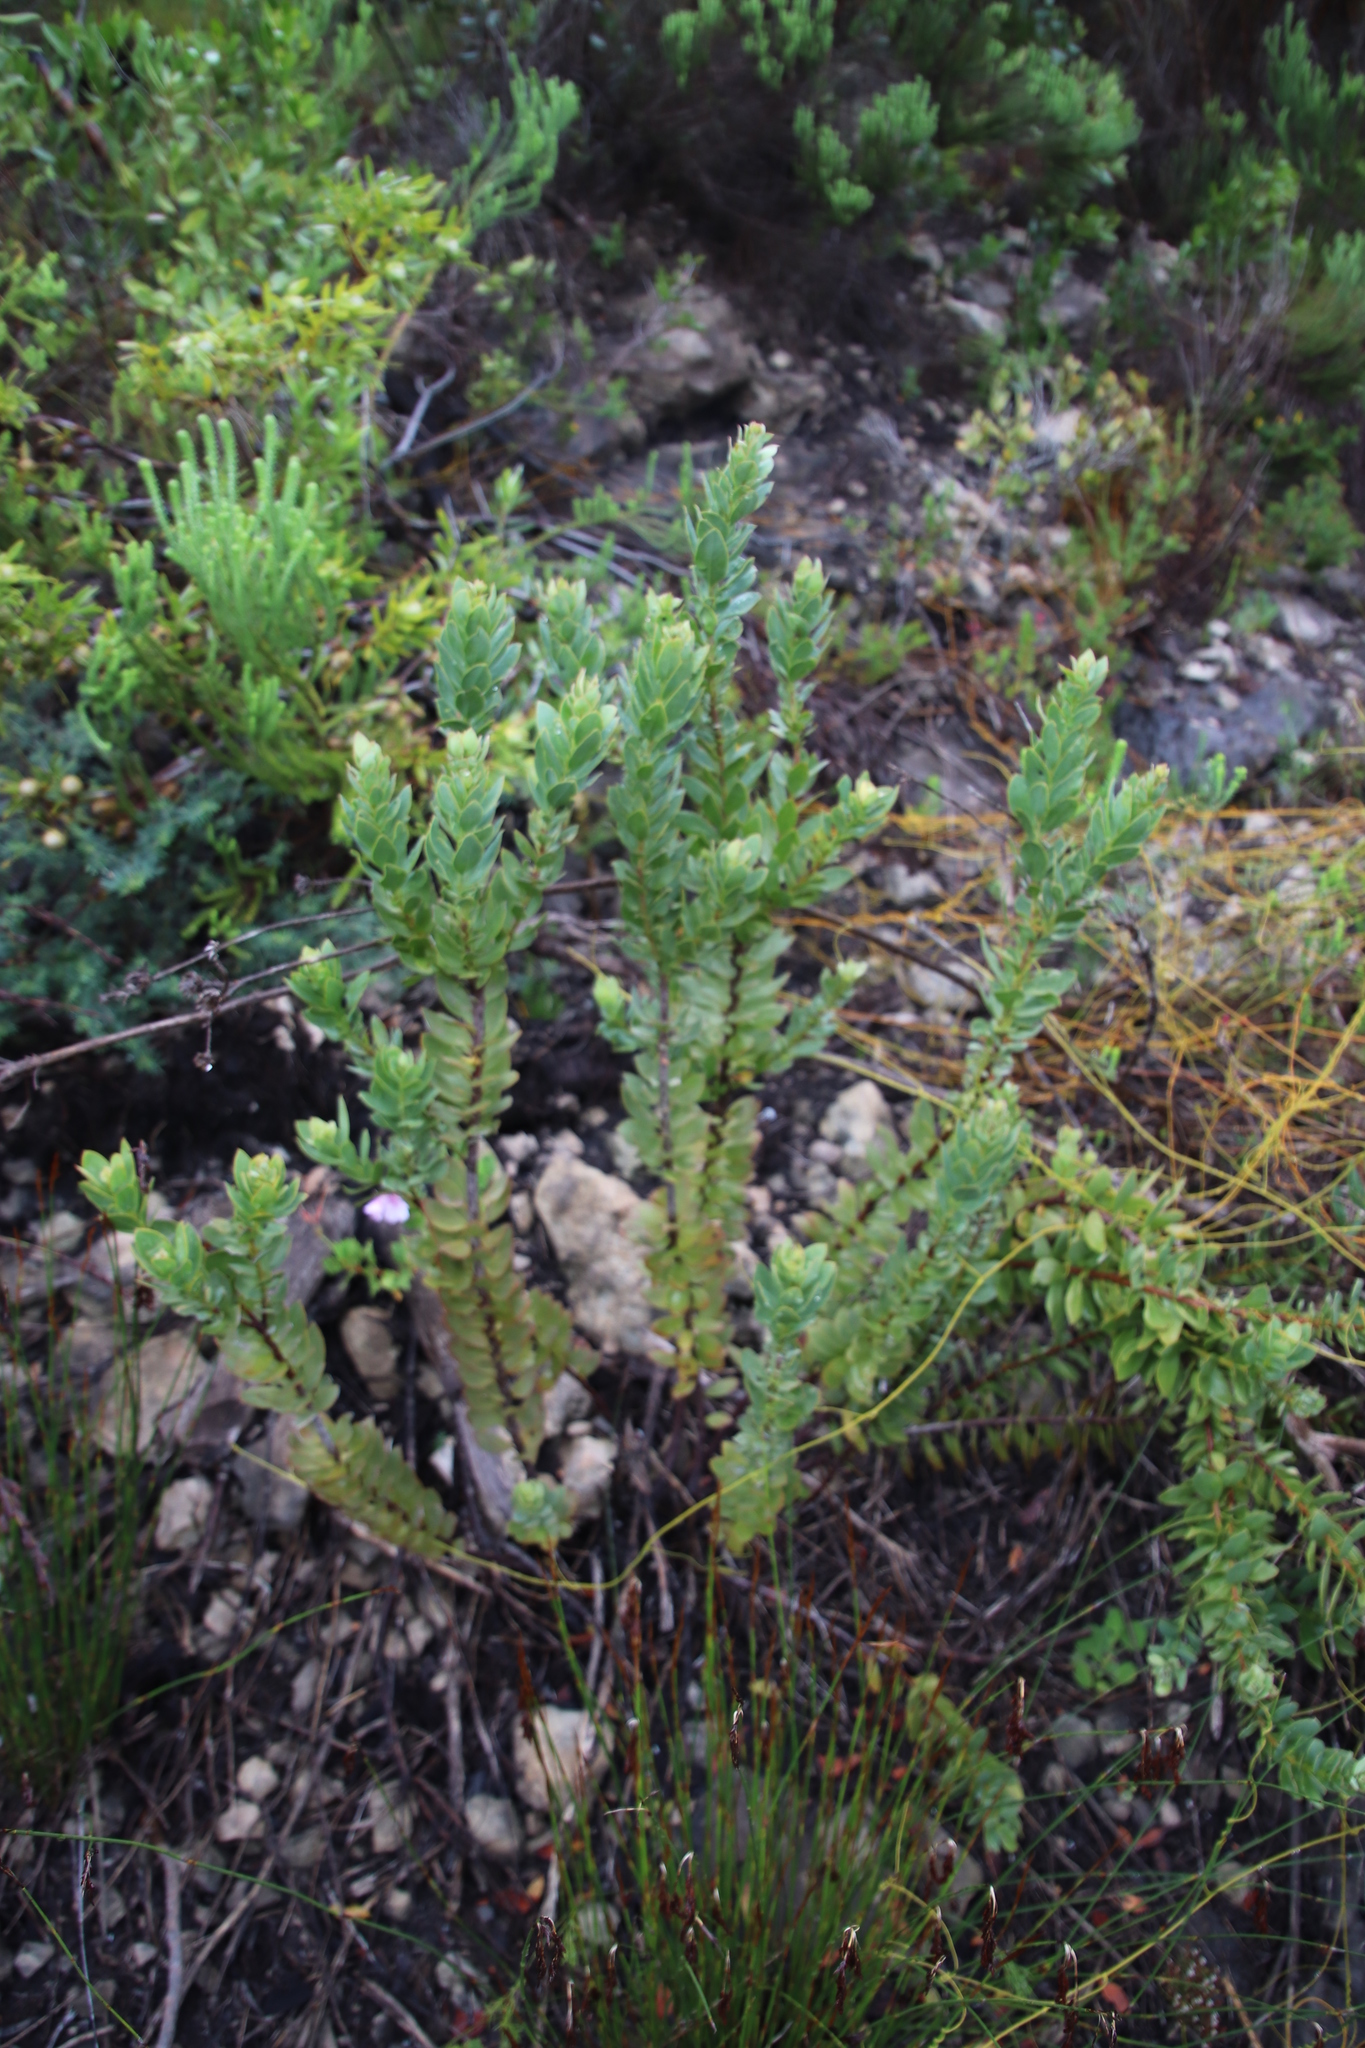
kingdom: Plantae
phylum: Tracheophyta
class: Magnoliopsida
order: Santalales
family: Santalaceae
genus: Osyris
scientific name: Osyris speciosa
